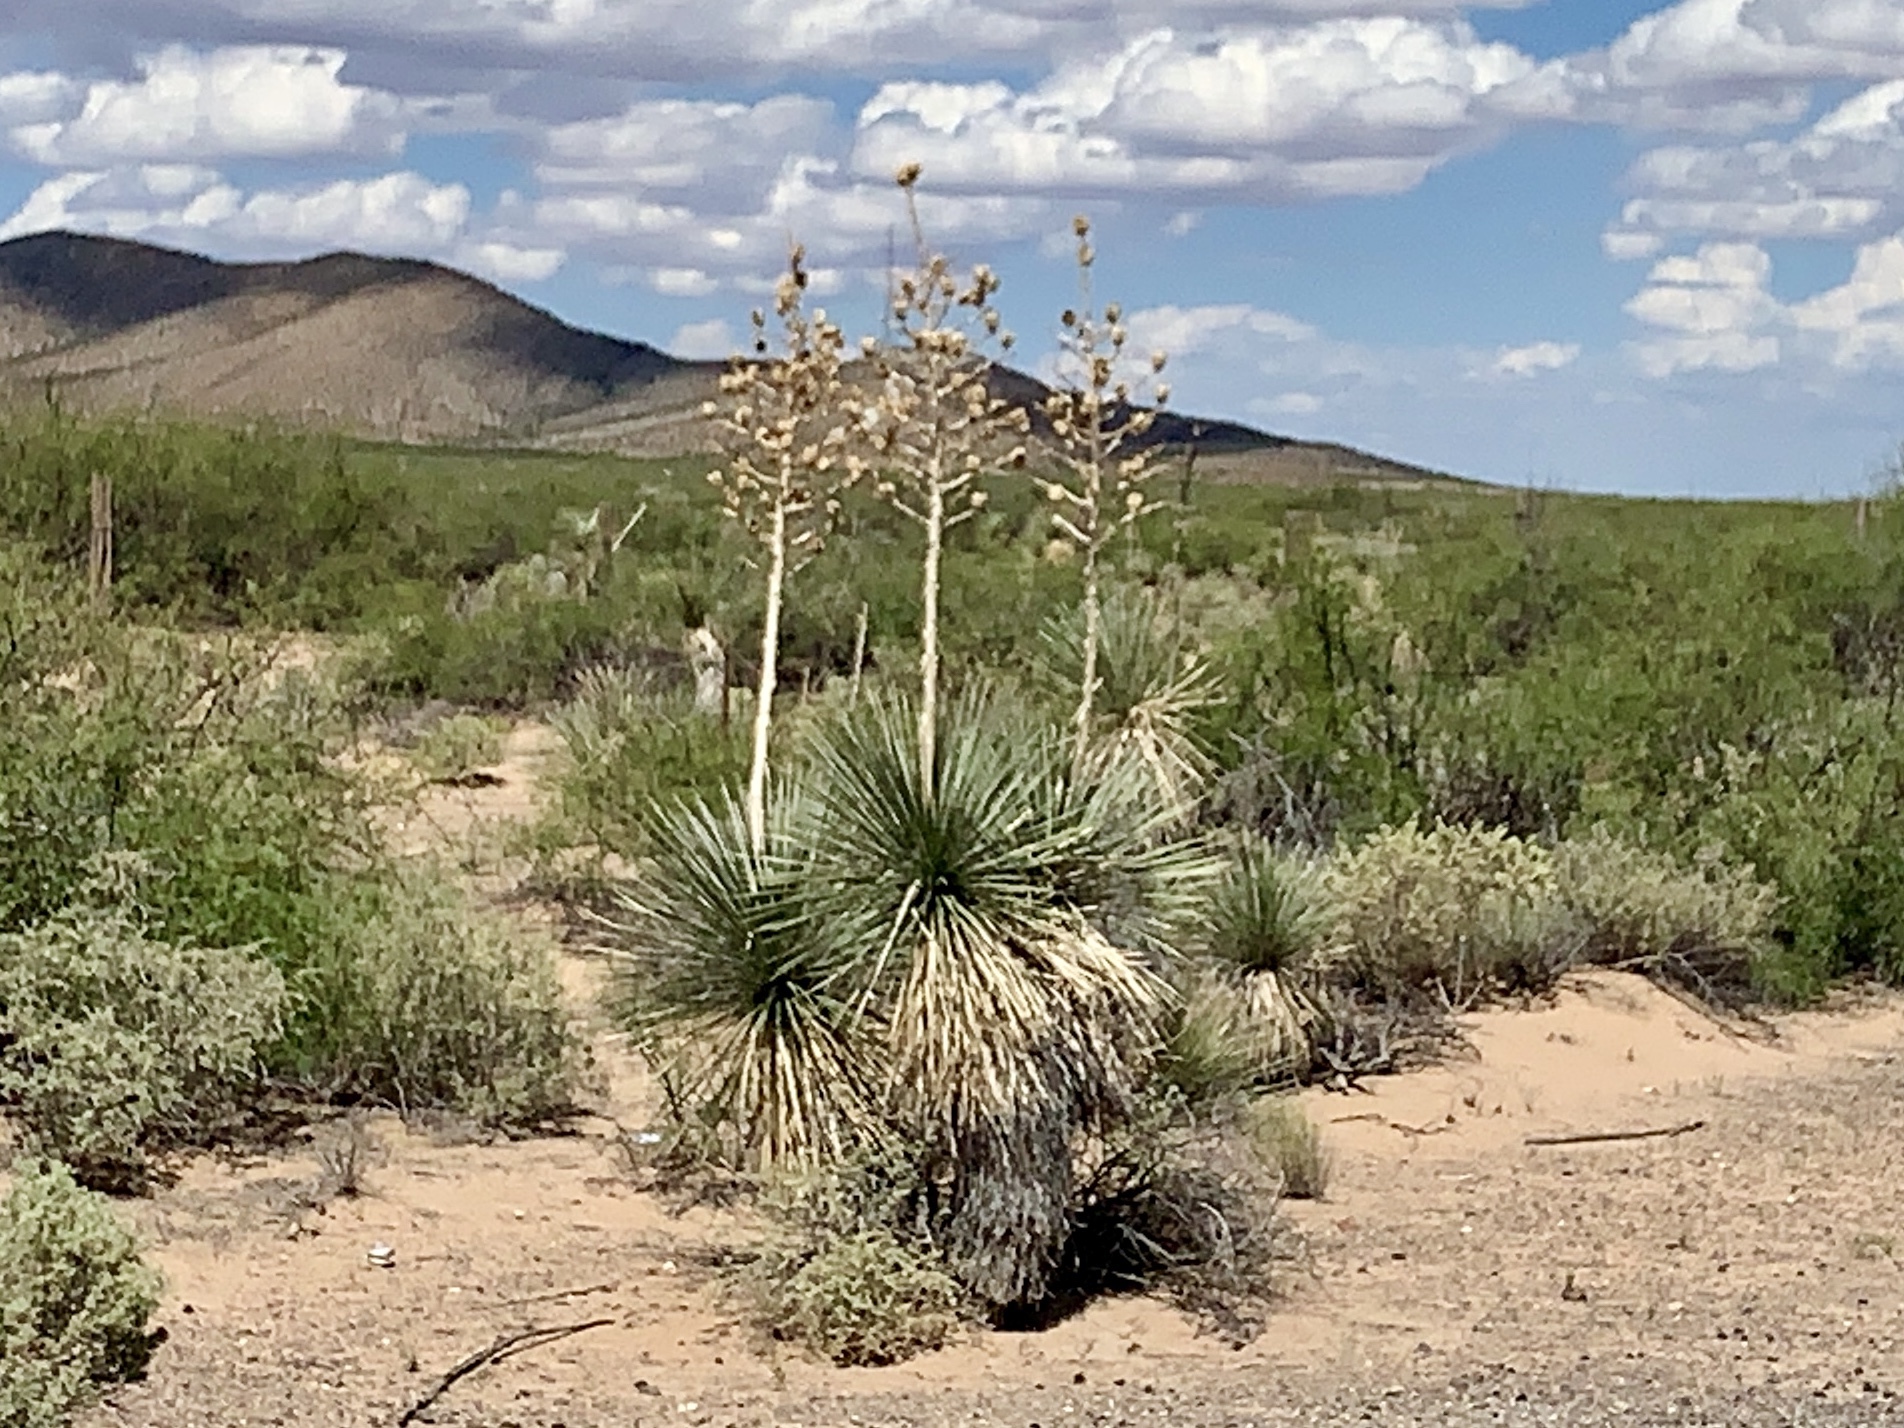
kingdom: Plantae
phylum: Tracheophyta
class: Liliopsida
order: Asparagales
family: Asparagaceae
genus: Yucca
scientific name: Yucca elata
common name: Palmella
